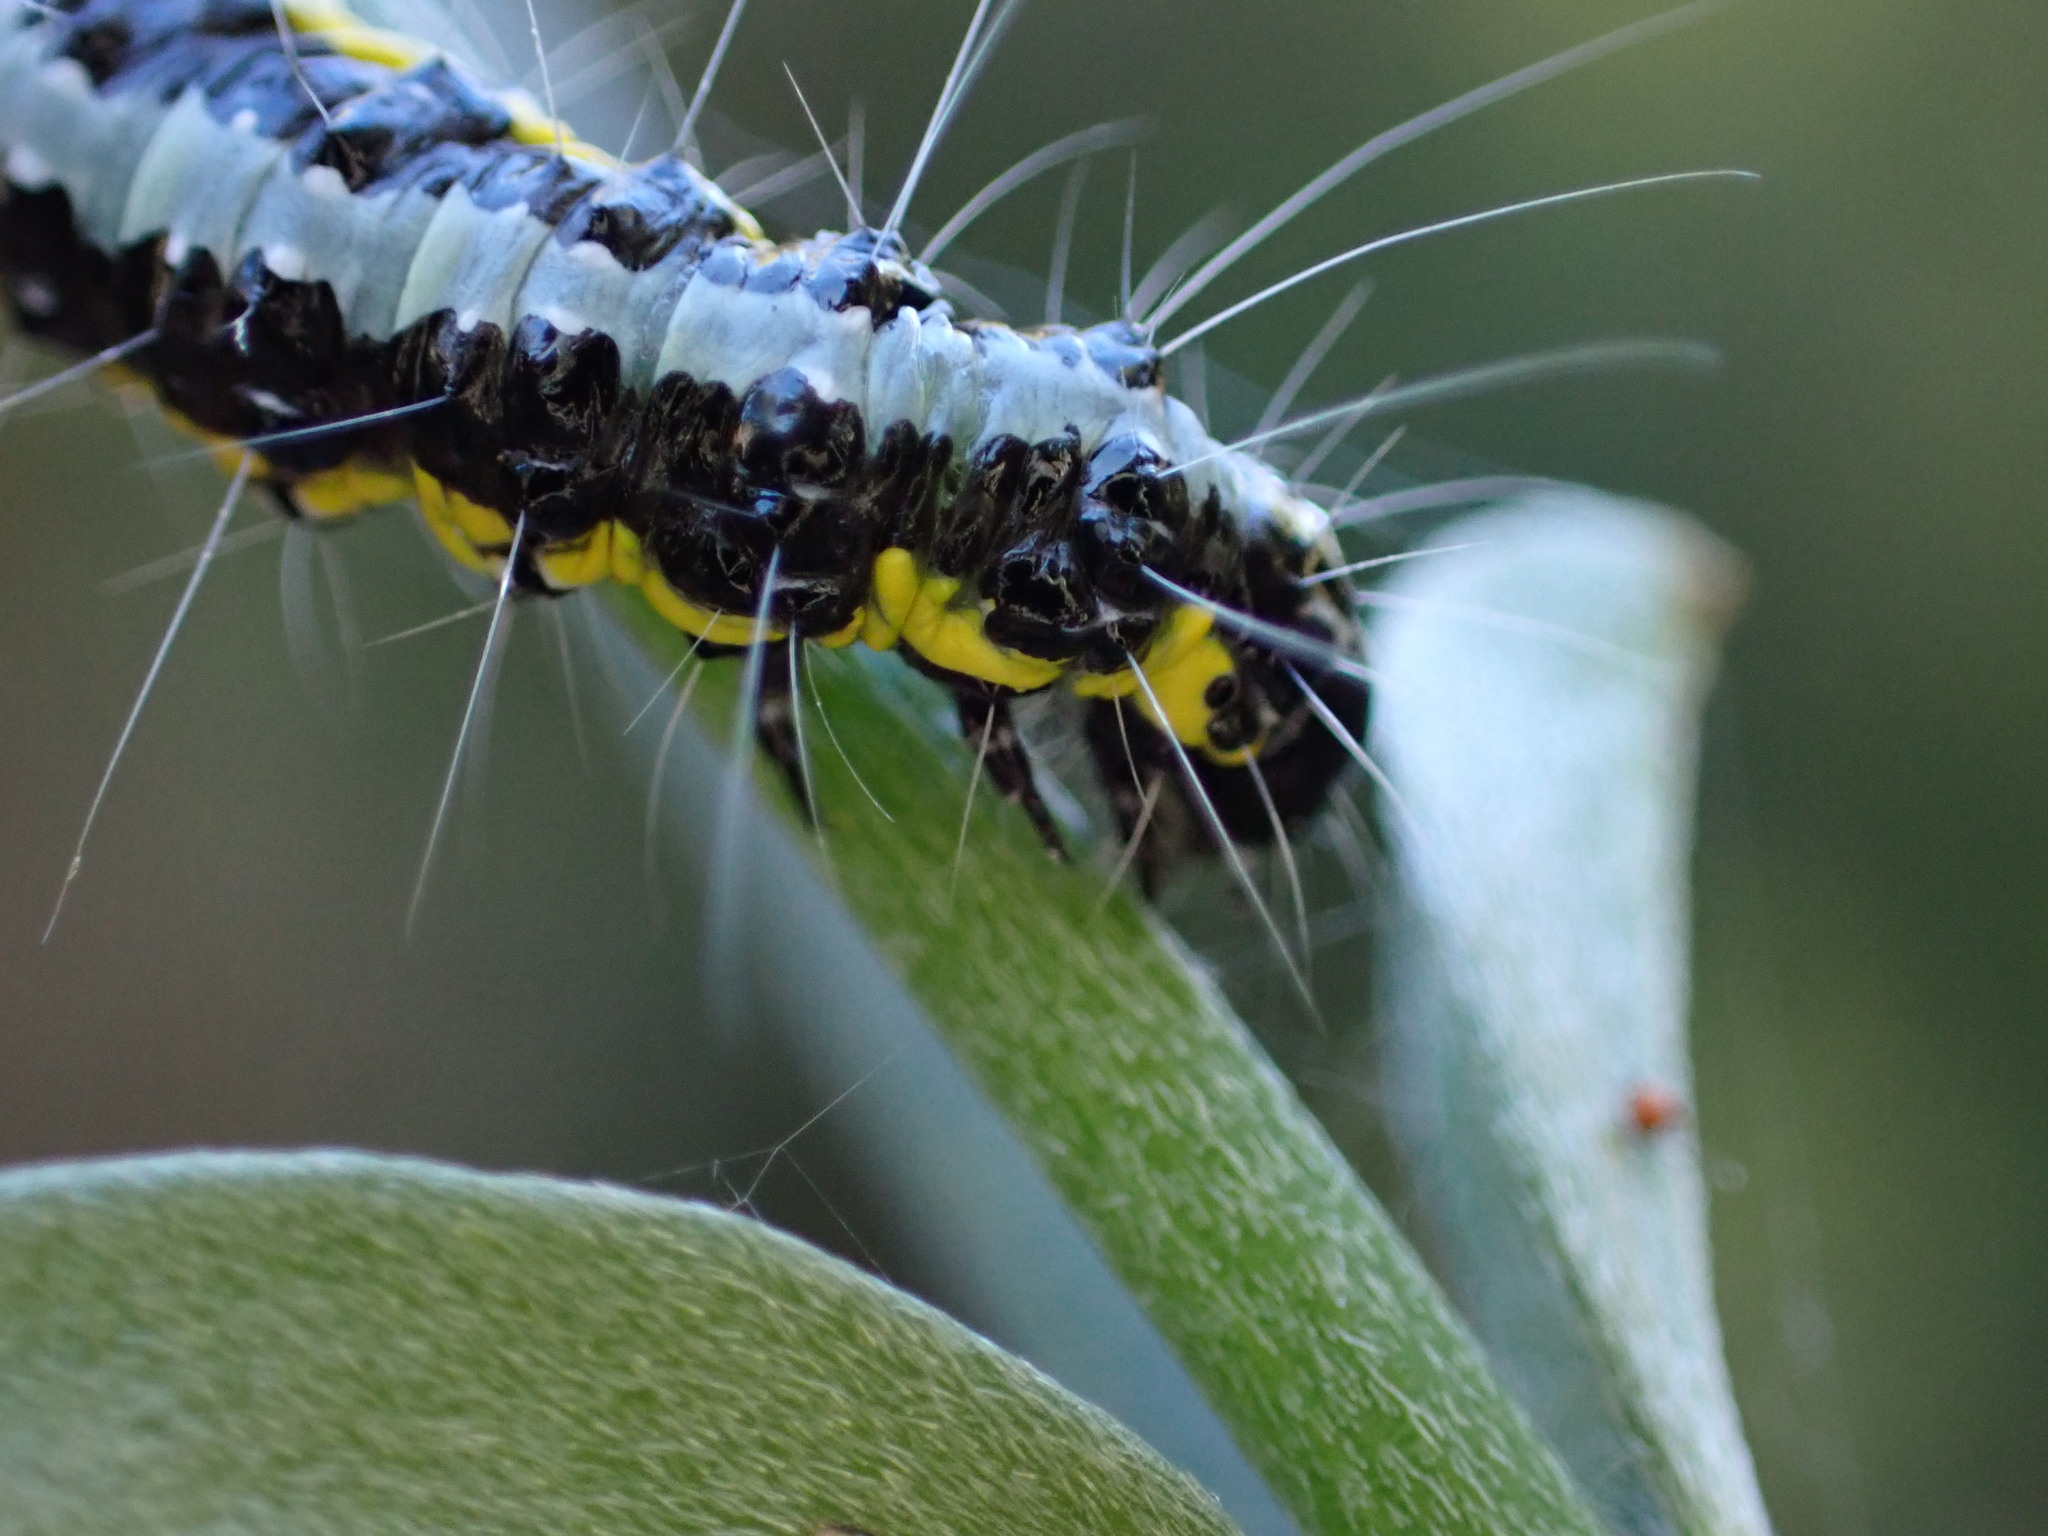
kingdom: Animalia
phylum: Arthropoda
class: Insecta
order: Lepidoptera
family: Crambidae
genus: Uresiphita
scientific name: Uresiphita gilvata
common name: Yellow-underwing pearl
